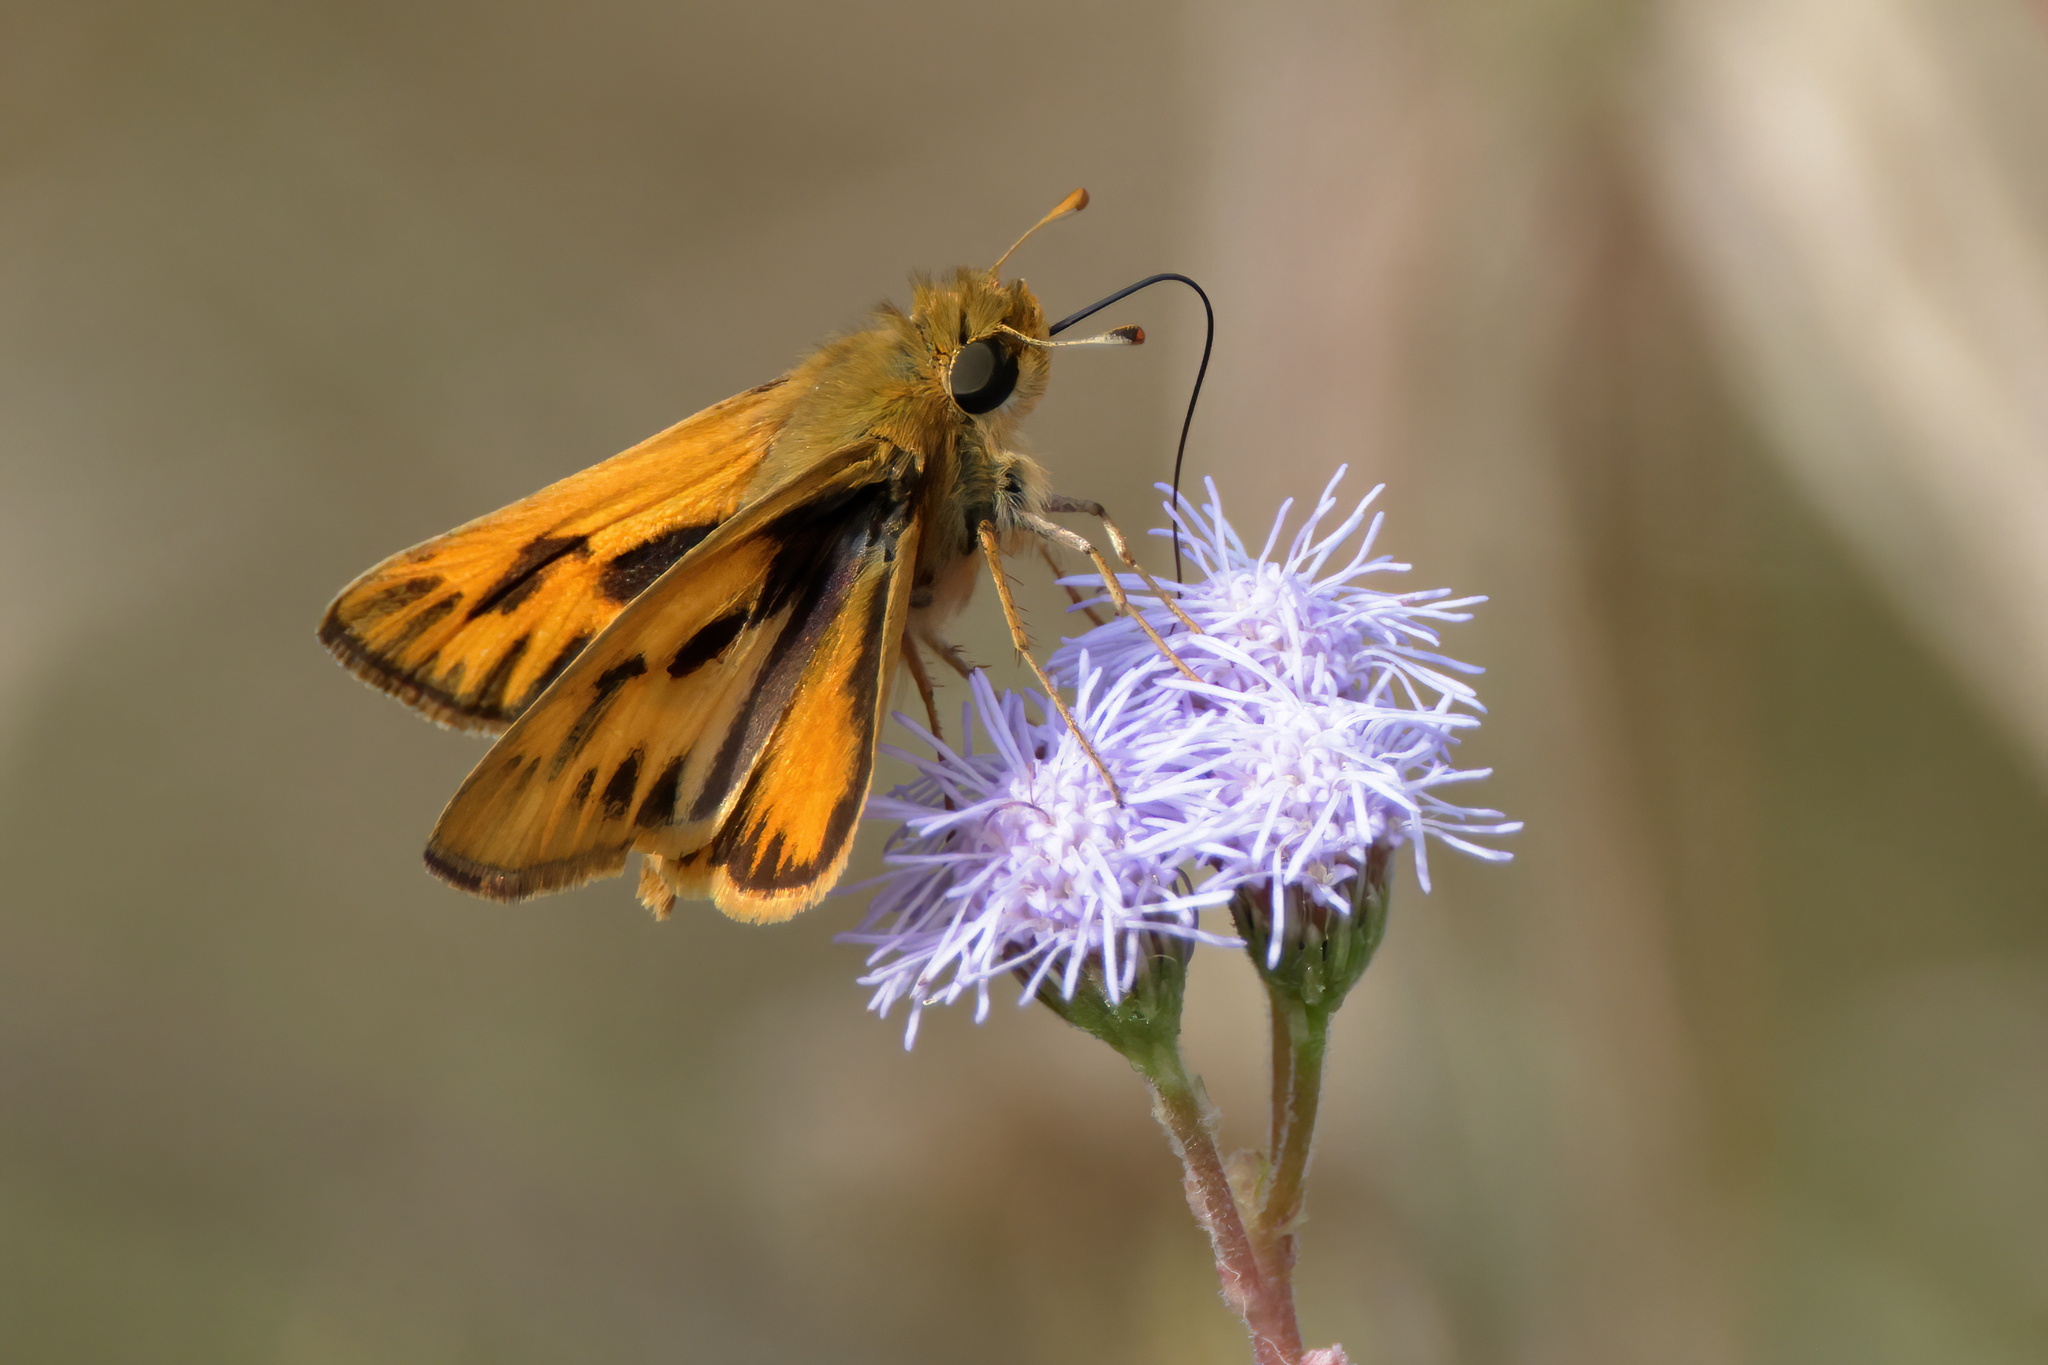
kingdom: Animalia
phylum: Arthropoda
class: Insecta
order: Lepidoptera
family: Hesperiidae
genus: Hylephila
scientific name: Hylephila phyleus
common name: Fiery skipper
